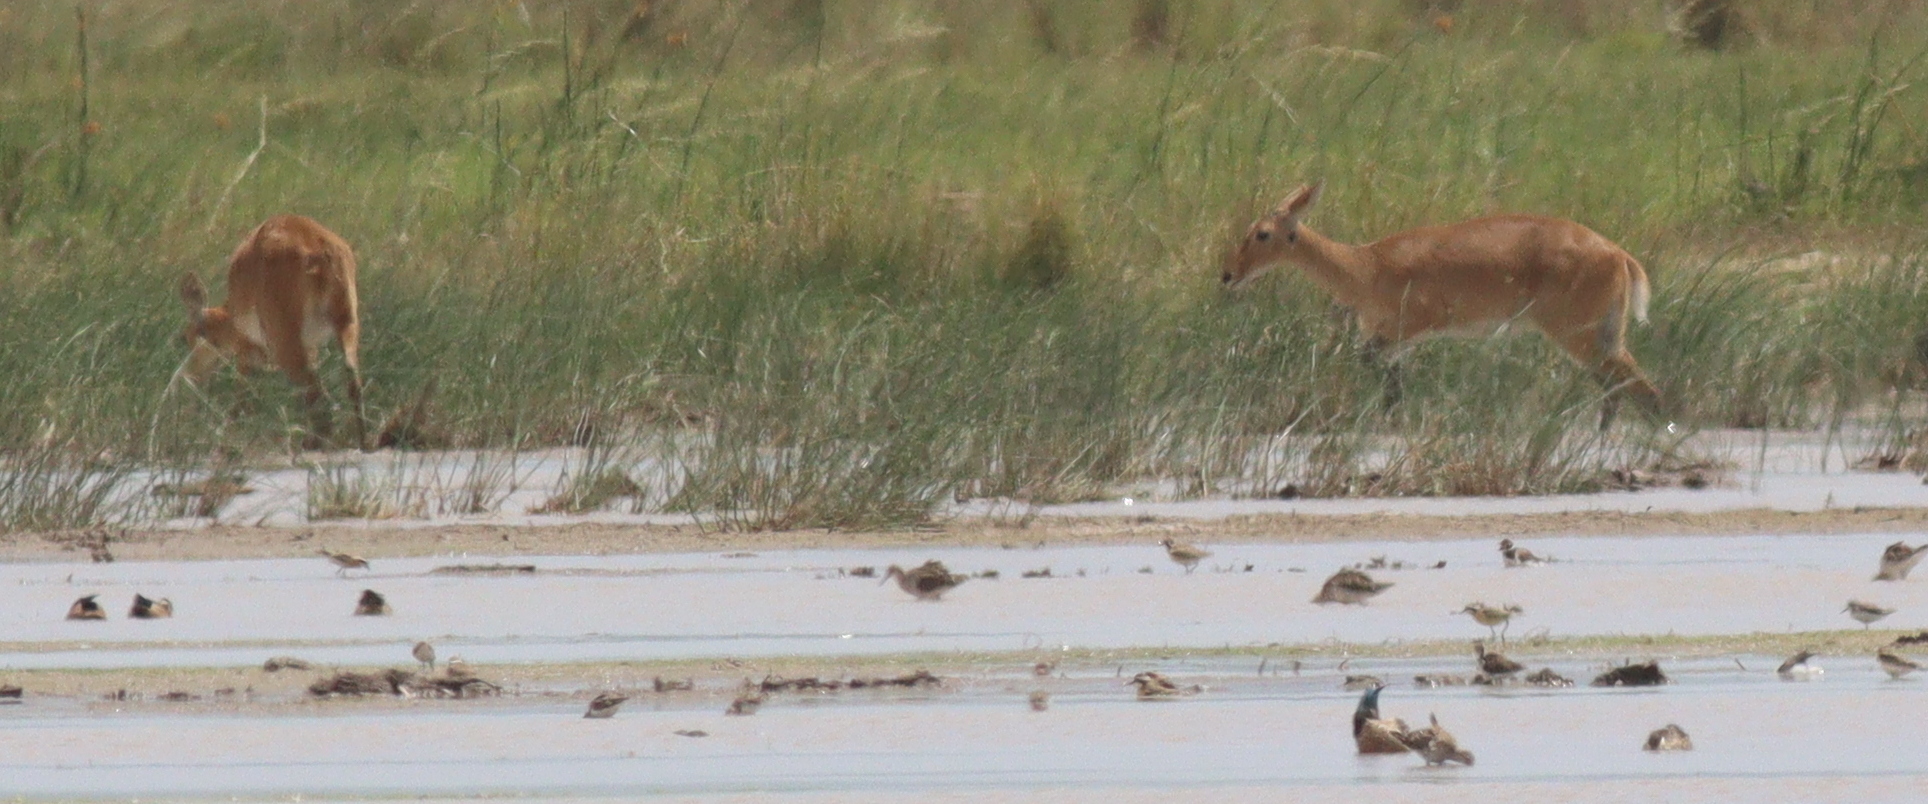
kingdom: Animalia
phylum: Chordata
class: Mammalia
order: Artiodactyla
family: Bovidae
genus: Redunca
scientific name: Redunca redunca
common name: Common reedbuck
